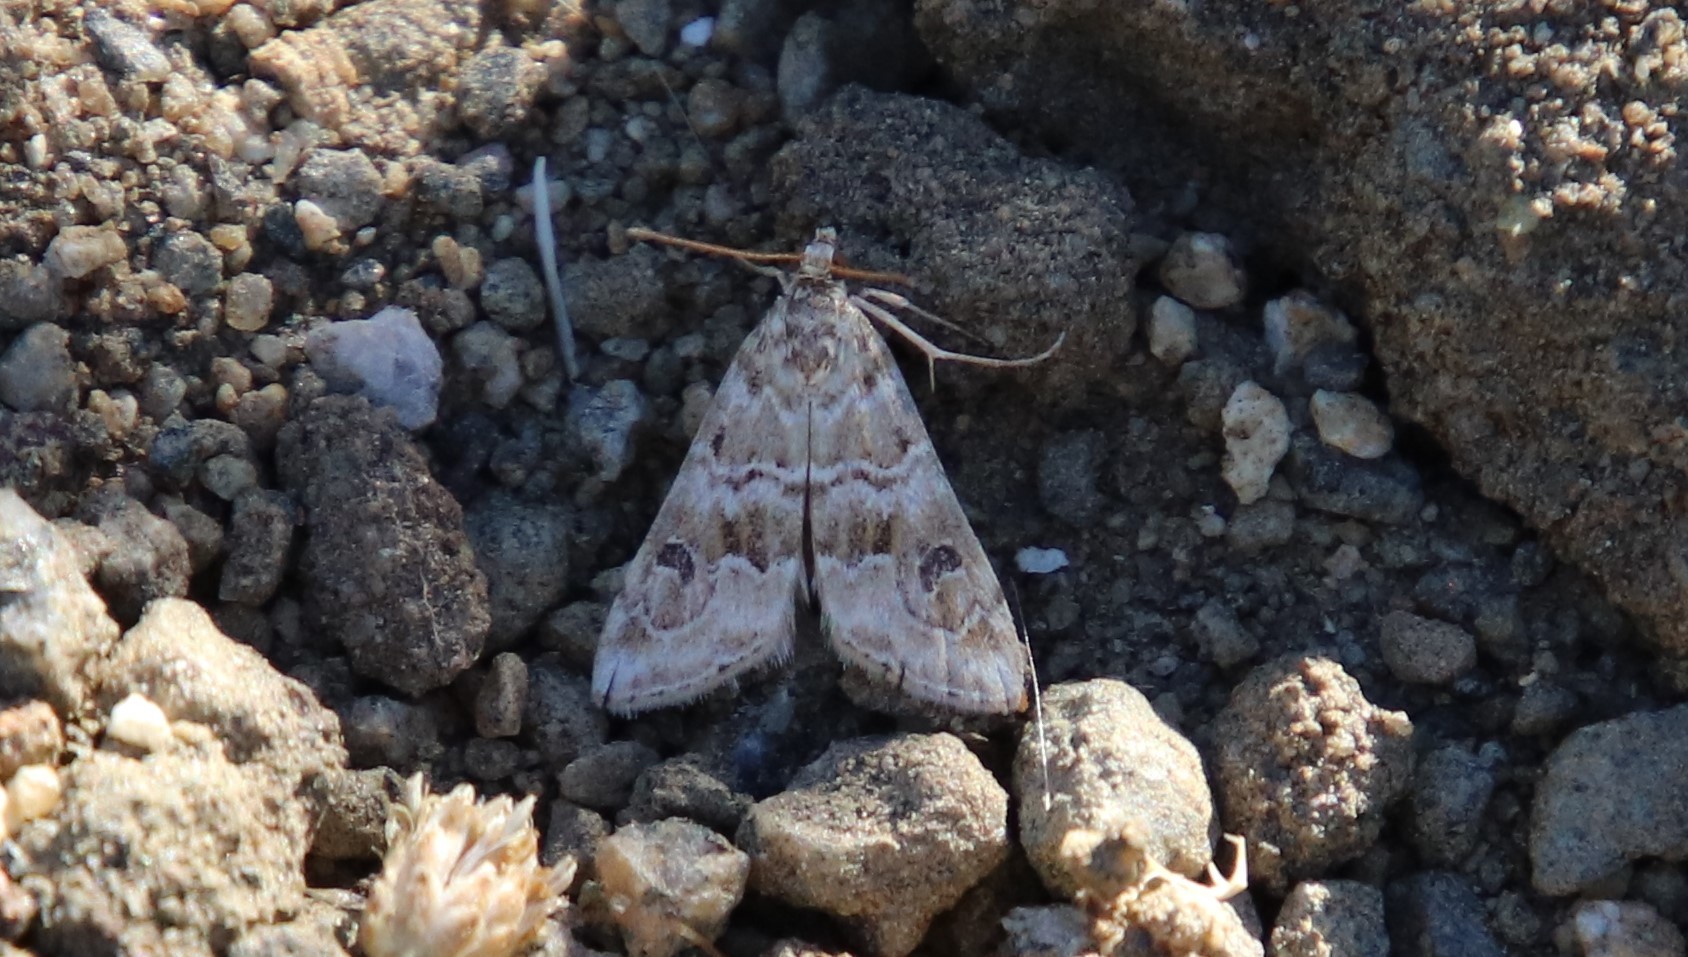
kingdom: Animalia
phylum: Arthropoda
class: Insecta
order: Lepidoptera
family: Crambidae
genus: Hellula
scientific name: Hellula rogatalis
